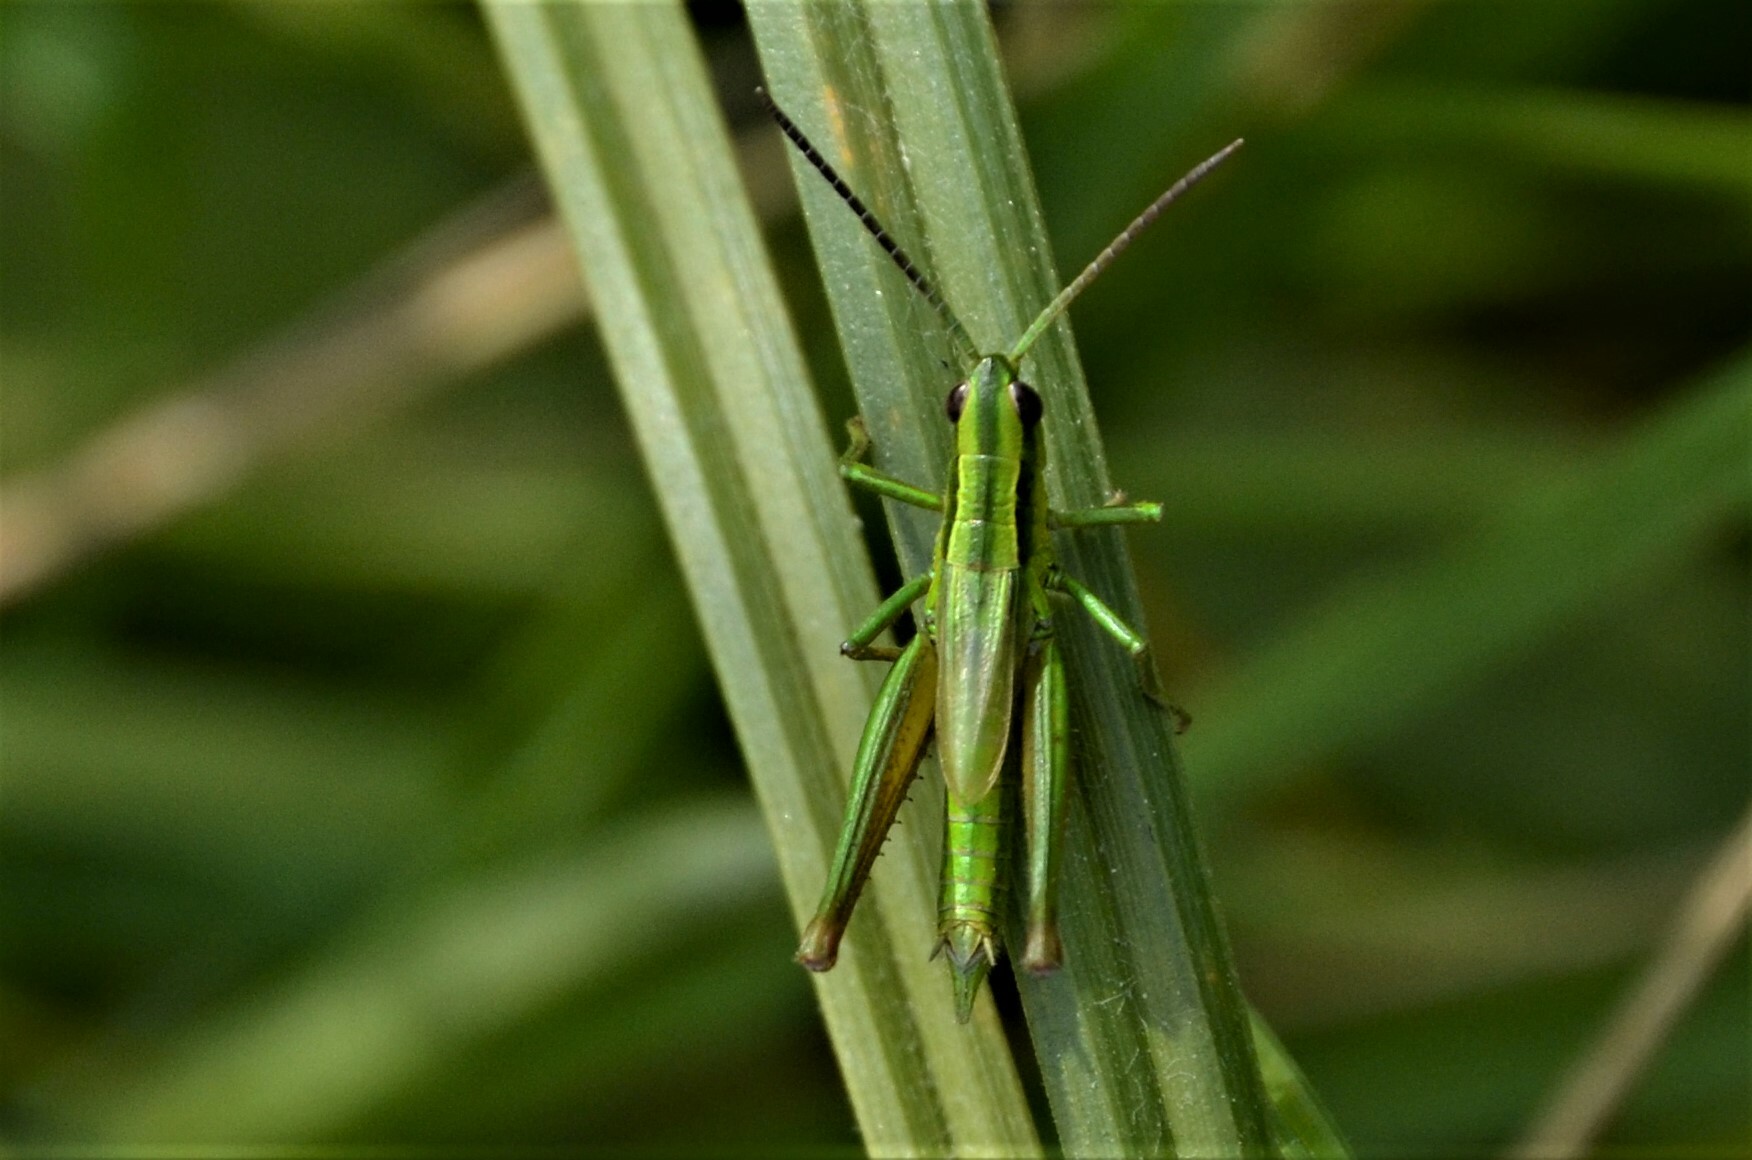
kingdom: Animalia
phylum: Arthropoda
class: Insecta
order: Orthoptera
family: Acrididae
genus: Euthystira
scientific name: Euthystira brachyptera
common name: Small gold grasshopper
